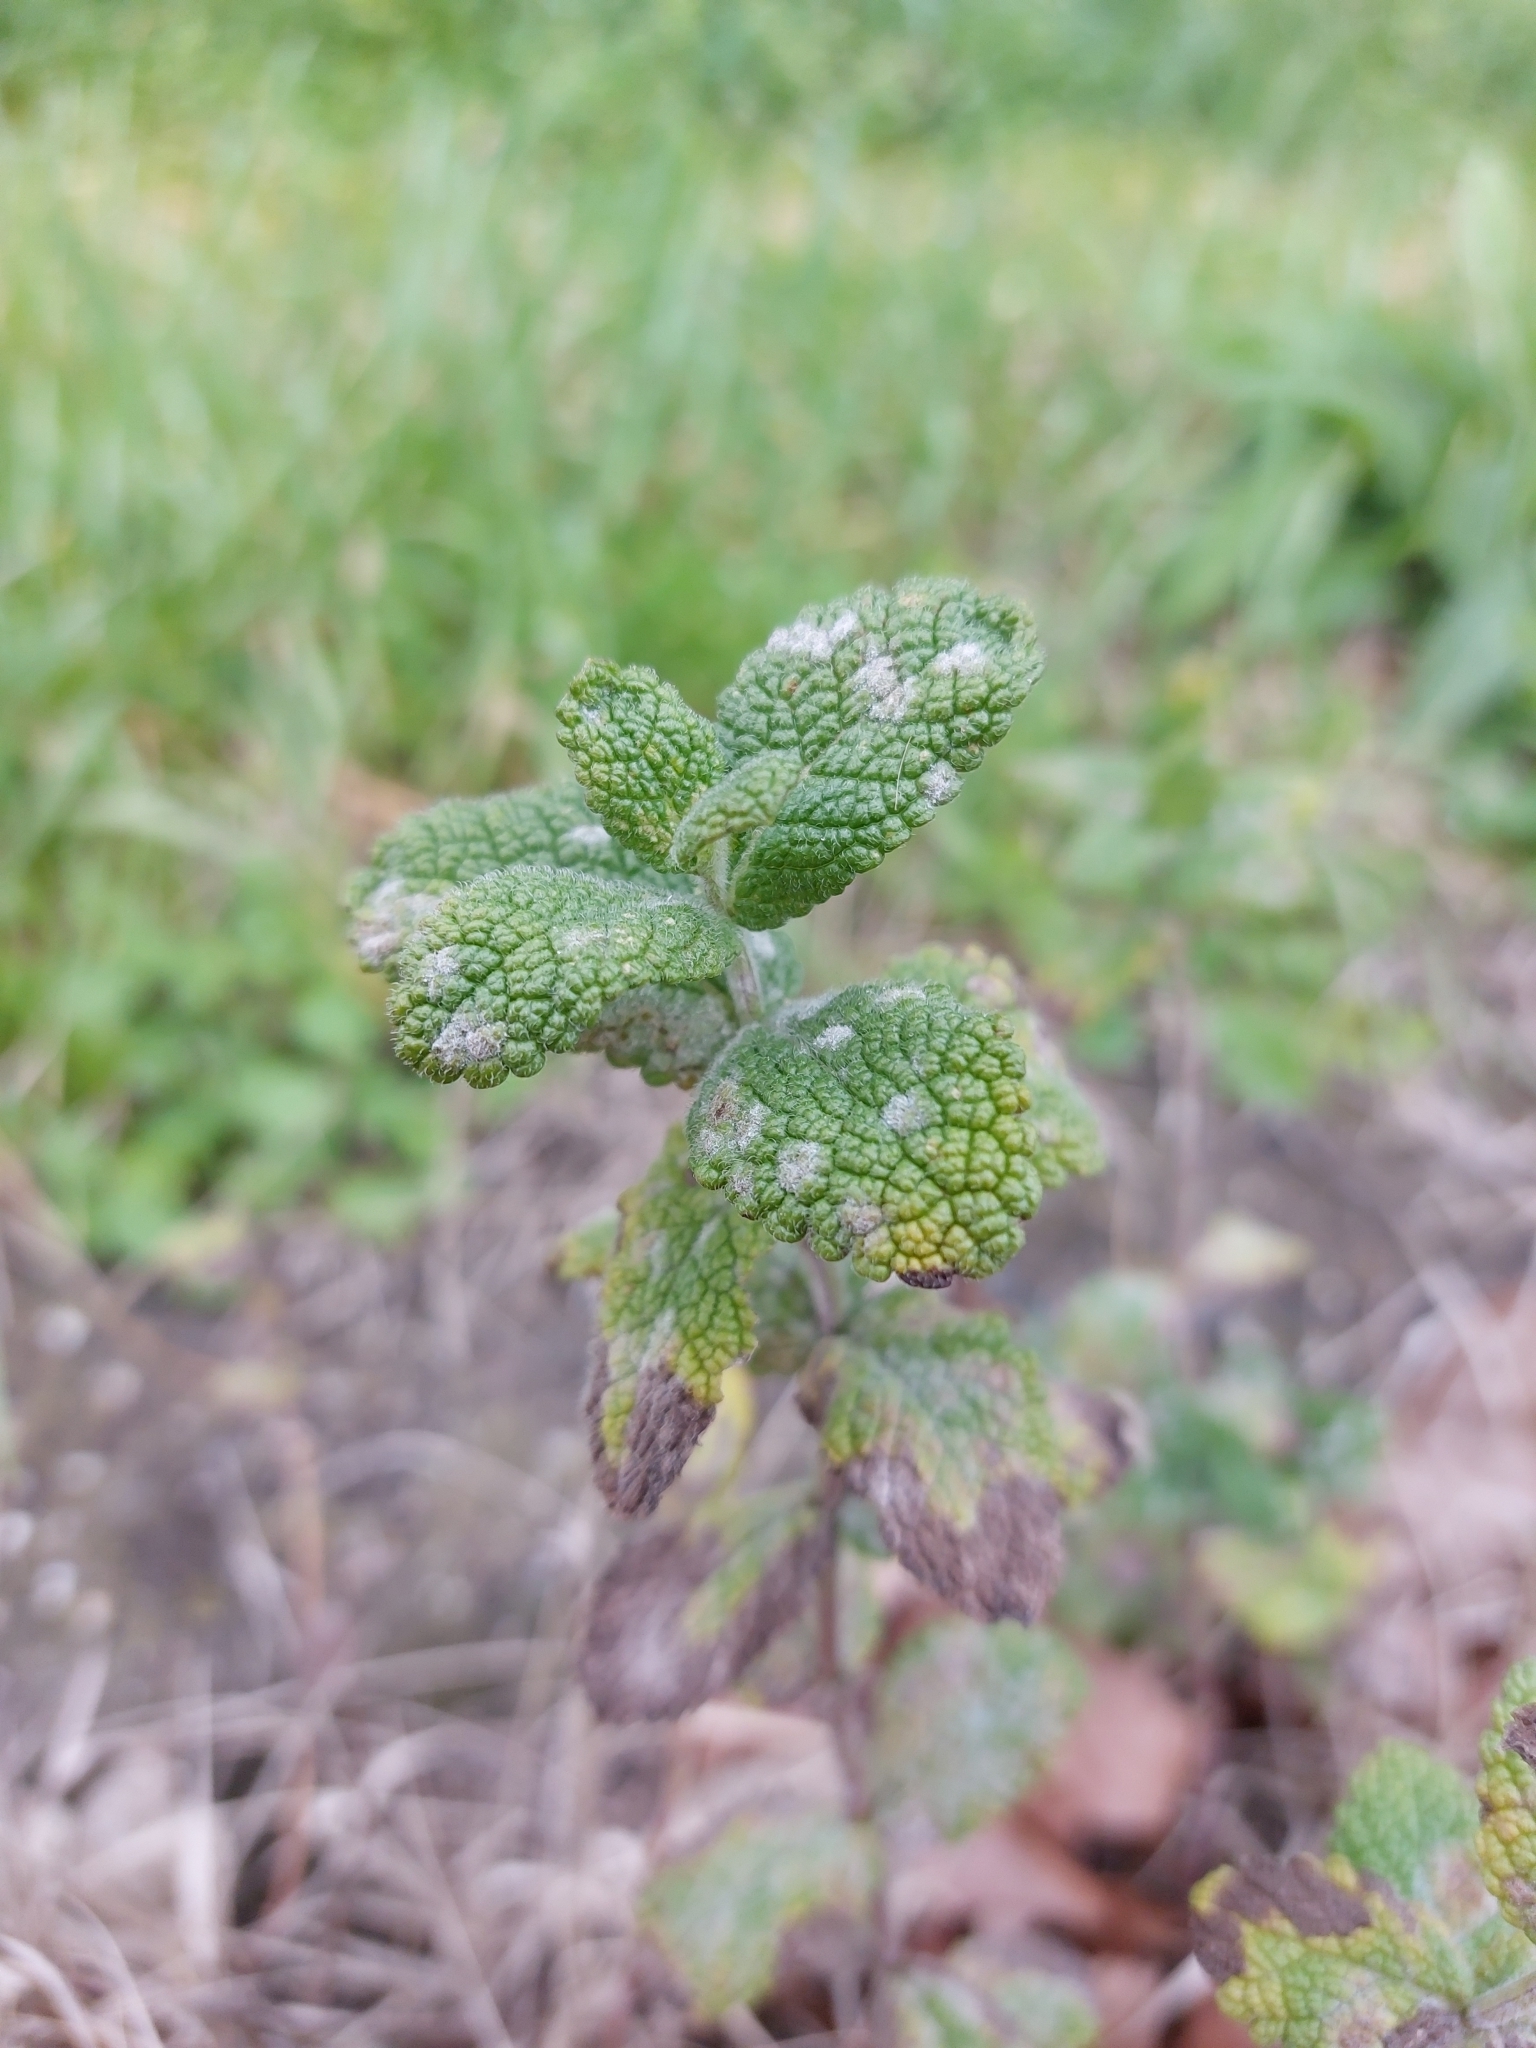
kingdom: Plantae
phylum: Tracheophyta
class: Magnoliopsida
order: Lamiales
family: Lamiaceae
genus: Mentha
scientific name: Mentha suaveolens
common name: Apple mint
